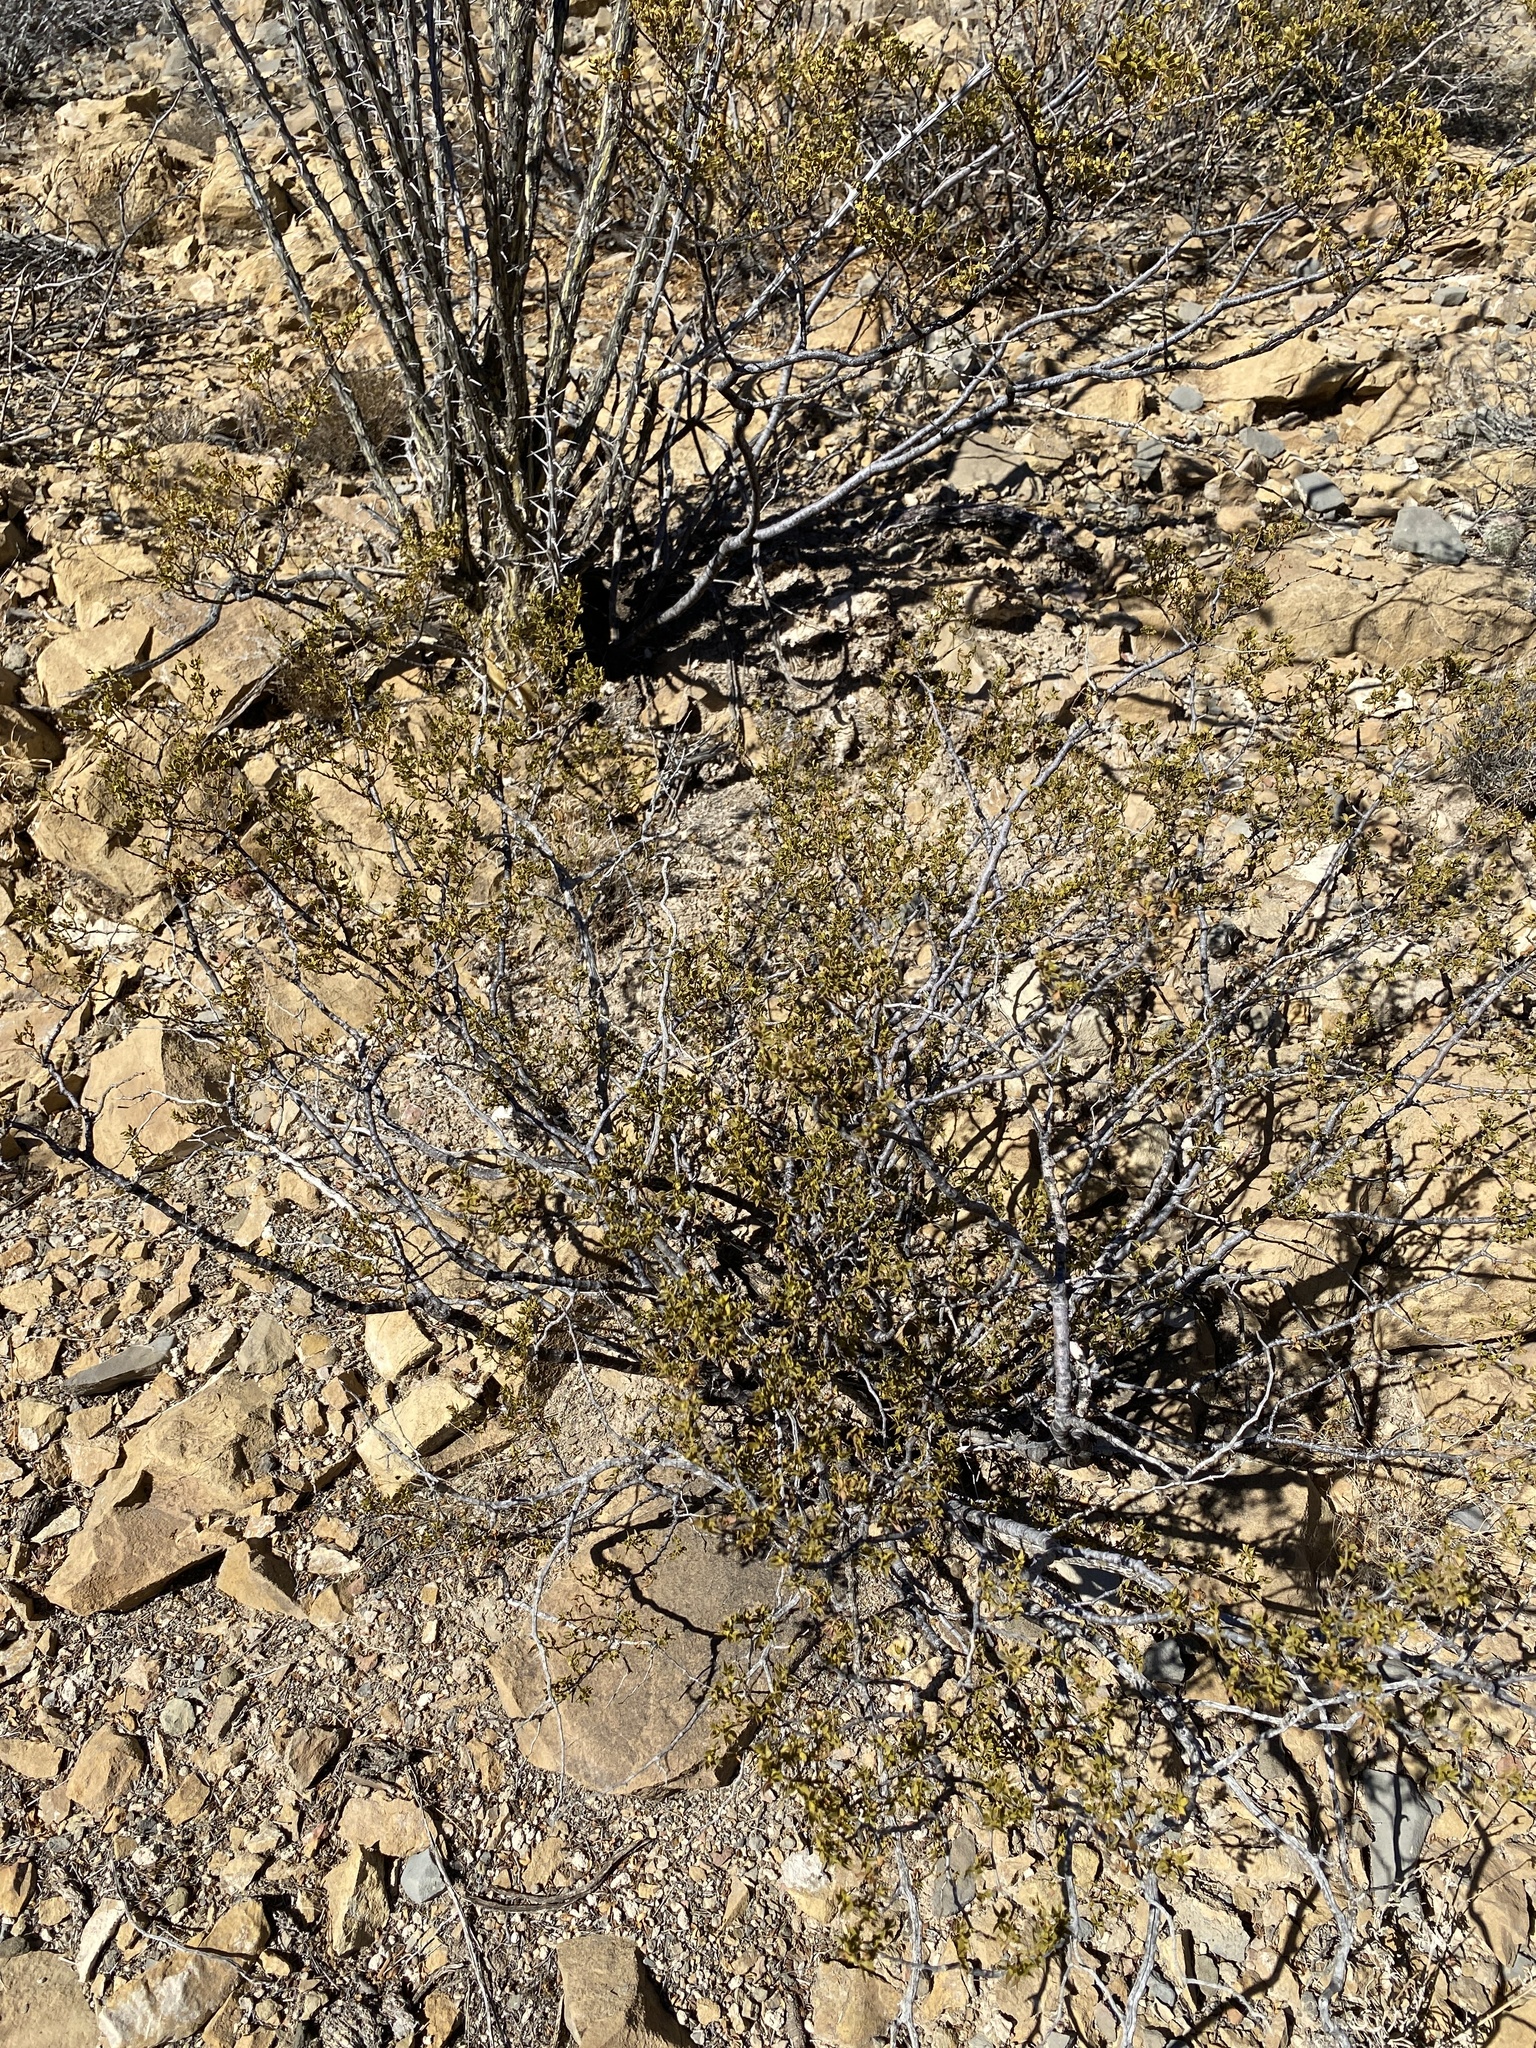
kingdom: Plantae
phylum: Tracheophyta
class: Magnoliopsida
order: Zygophyllales
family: Zygophyllaceae
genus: Larrea
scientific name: Larrea tridentata
